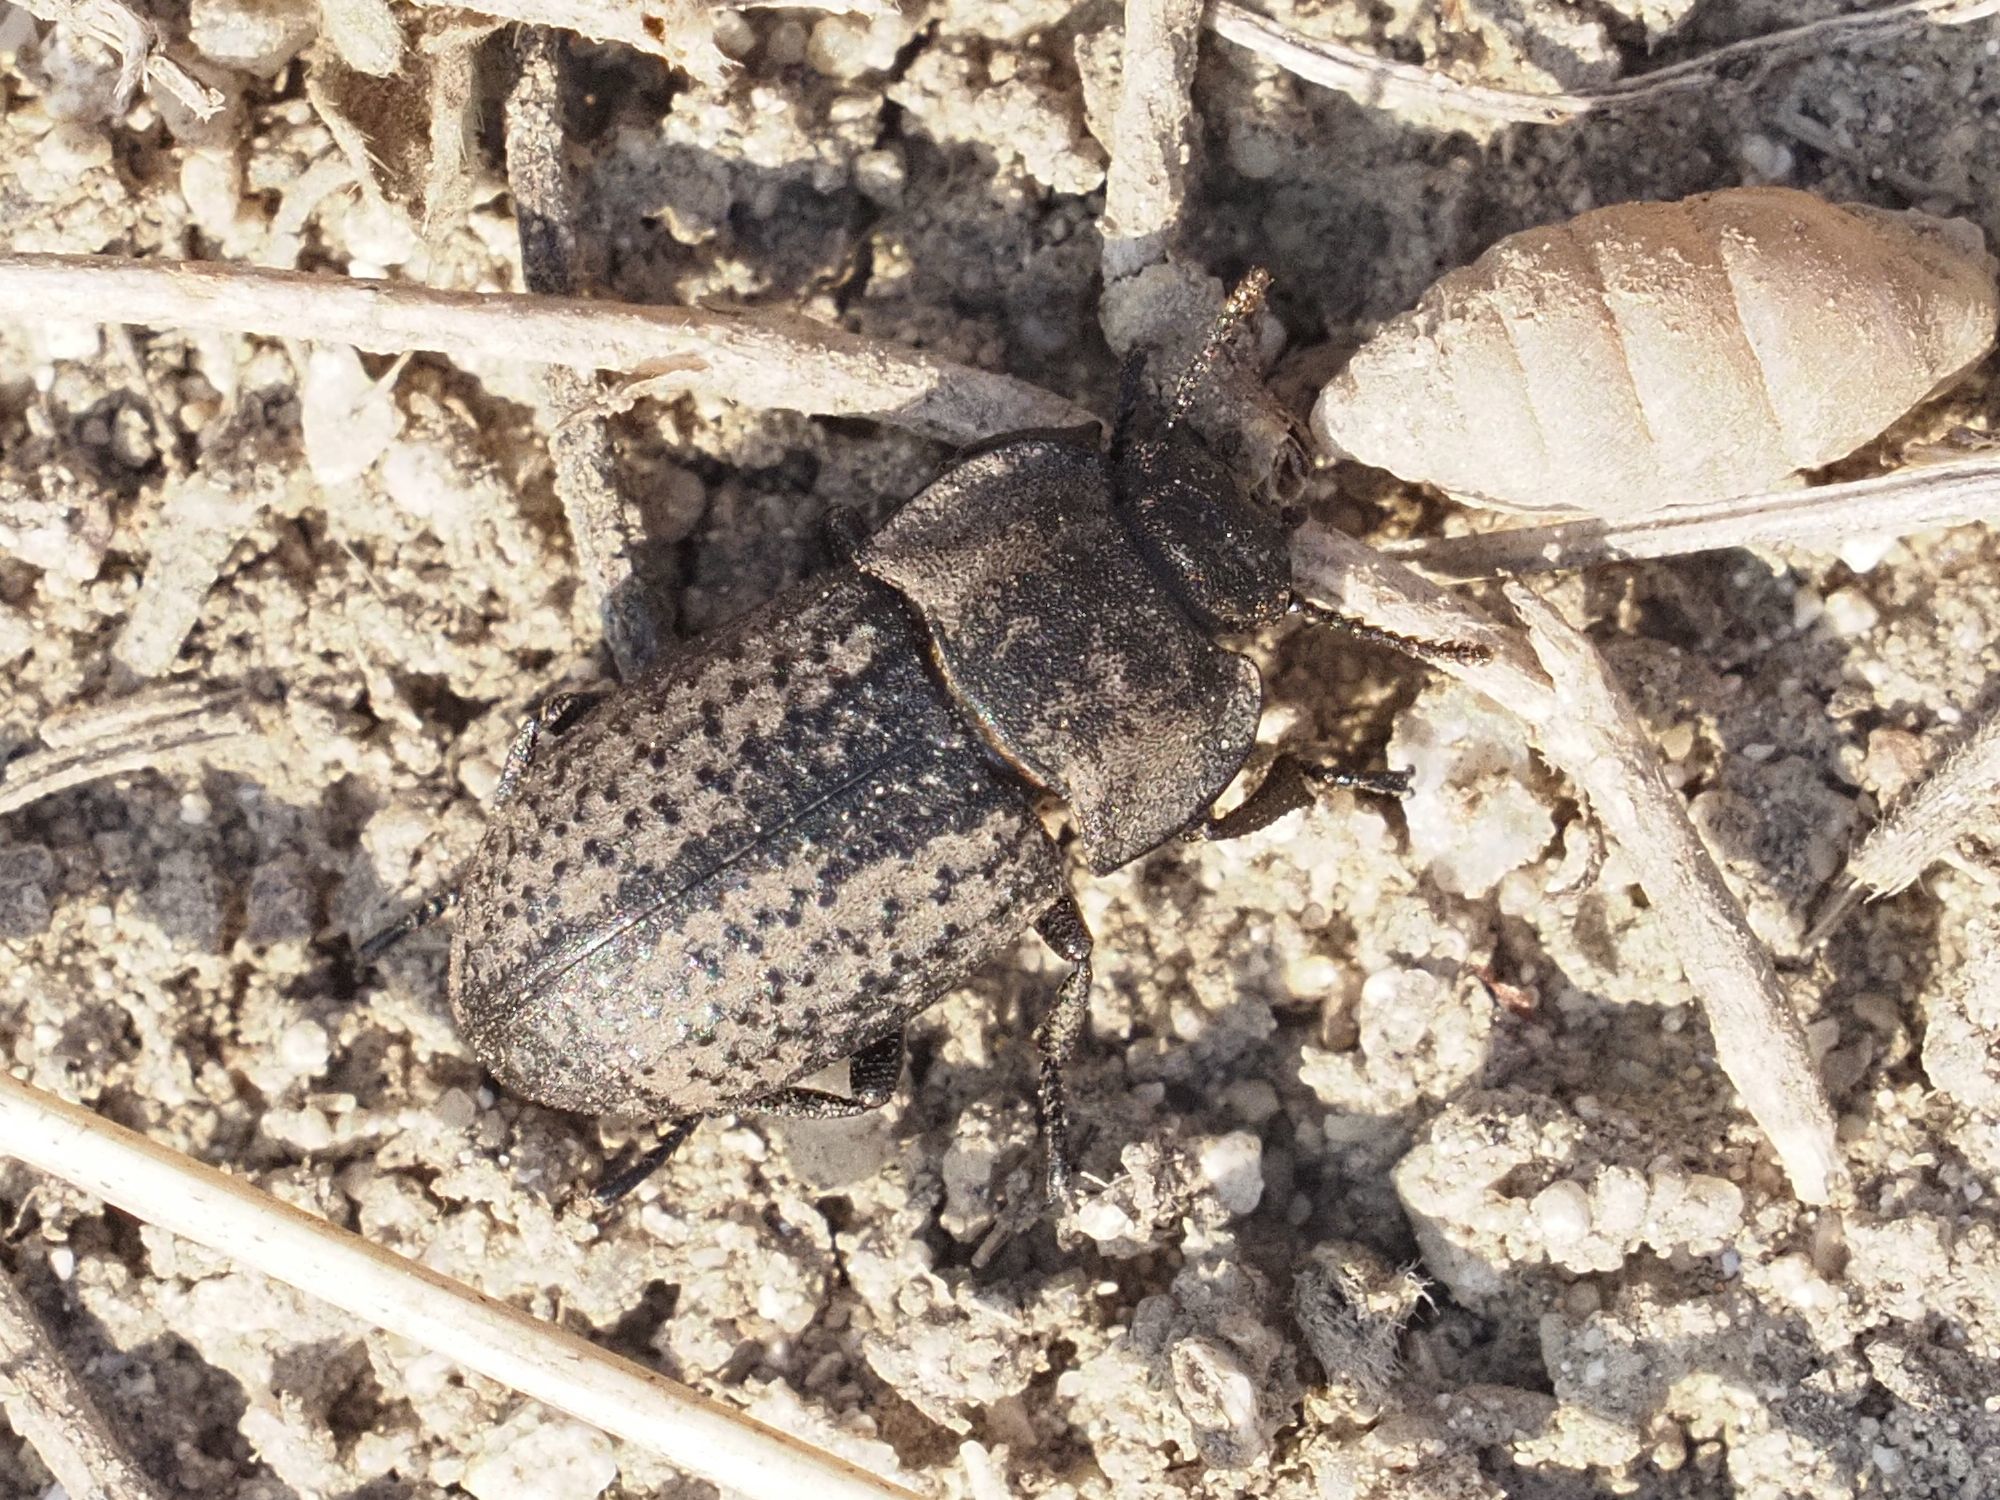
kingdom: Animalia
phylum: Arthropoda
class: Insecta
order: Coleoptera
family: Tenebrionidae
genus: Opatrum
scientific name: Opatrum sabulosum
